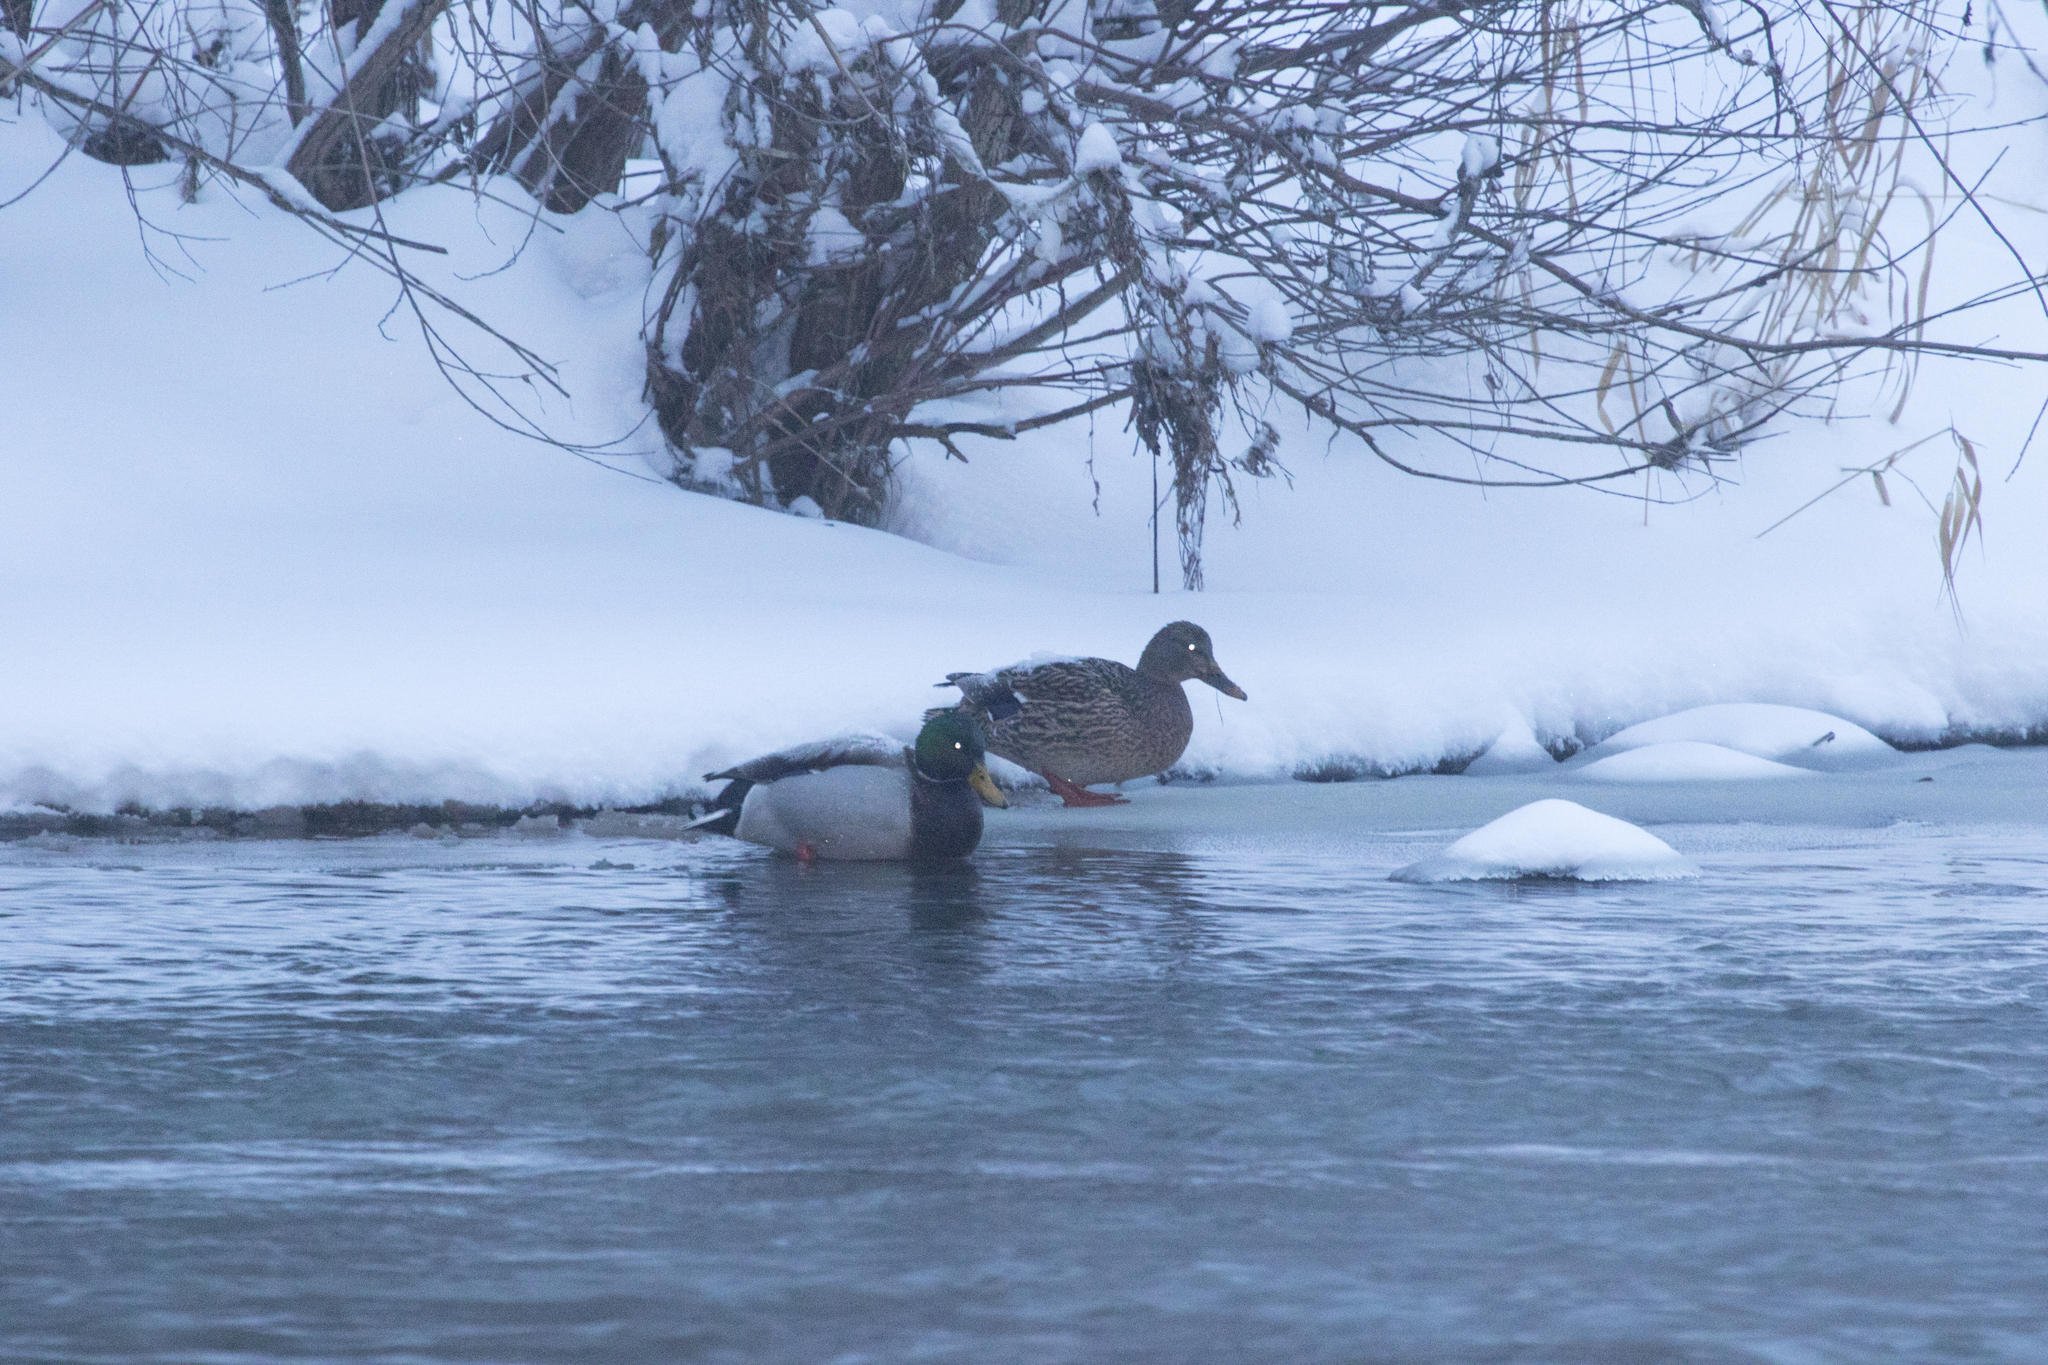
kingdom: Animalia
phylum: Chordata
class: Aves
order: Anseriformes
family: Anatidae
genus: Anas
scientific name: Anas platyrhynchos
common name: Mallard
